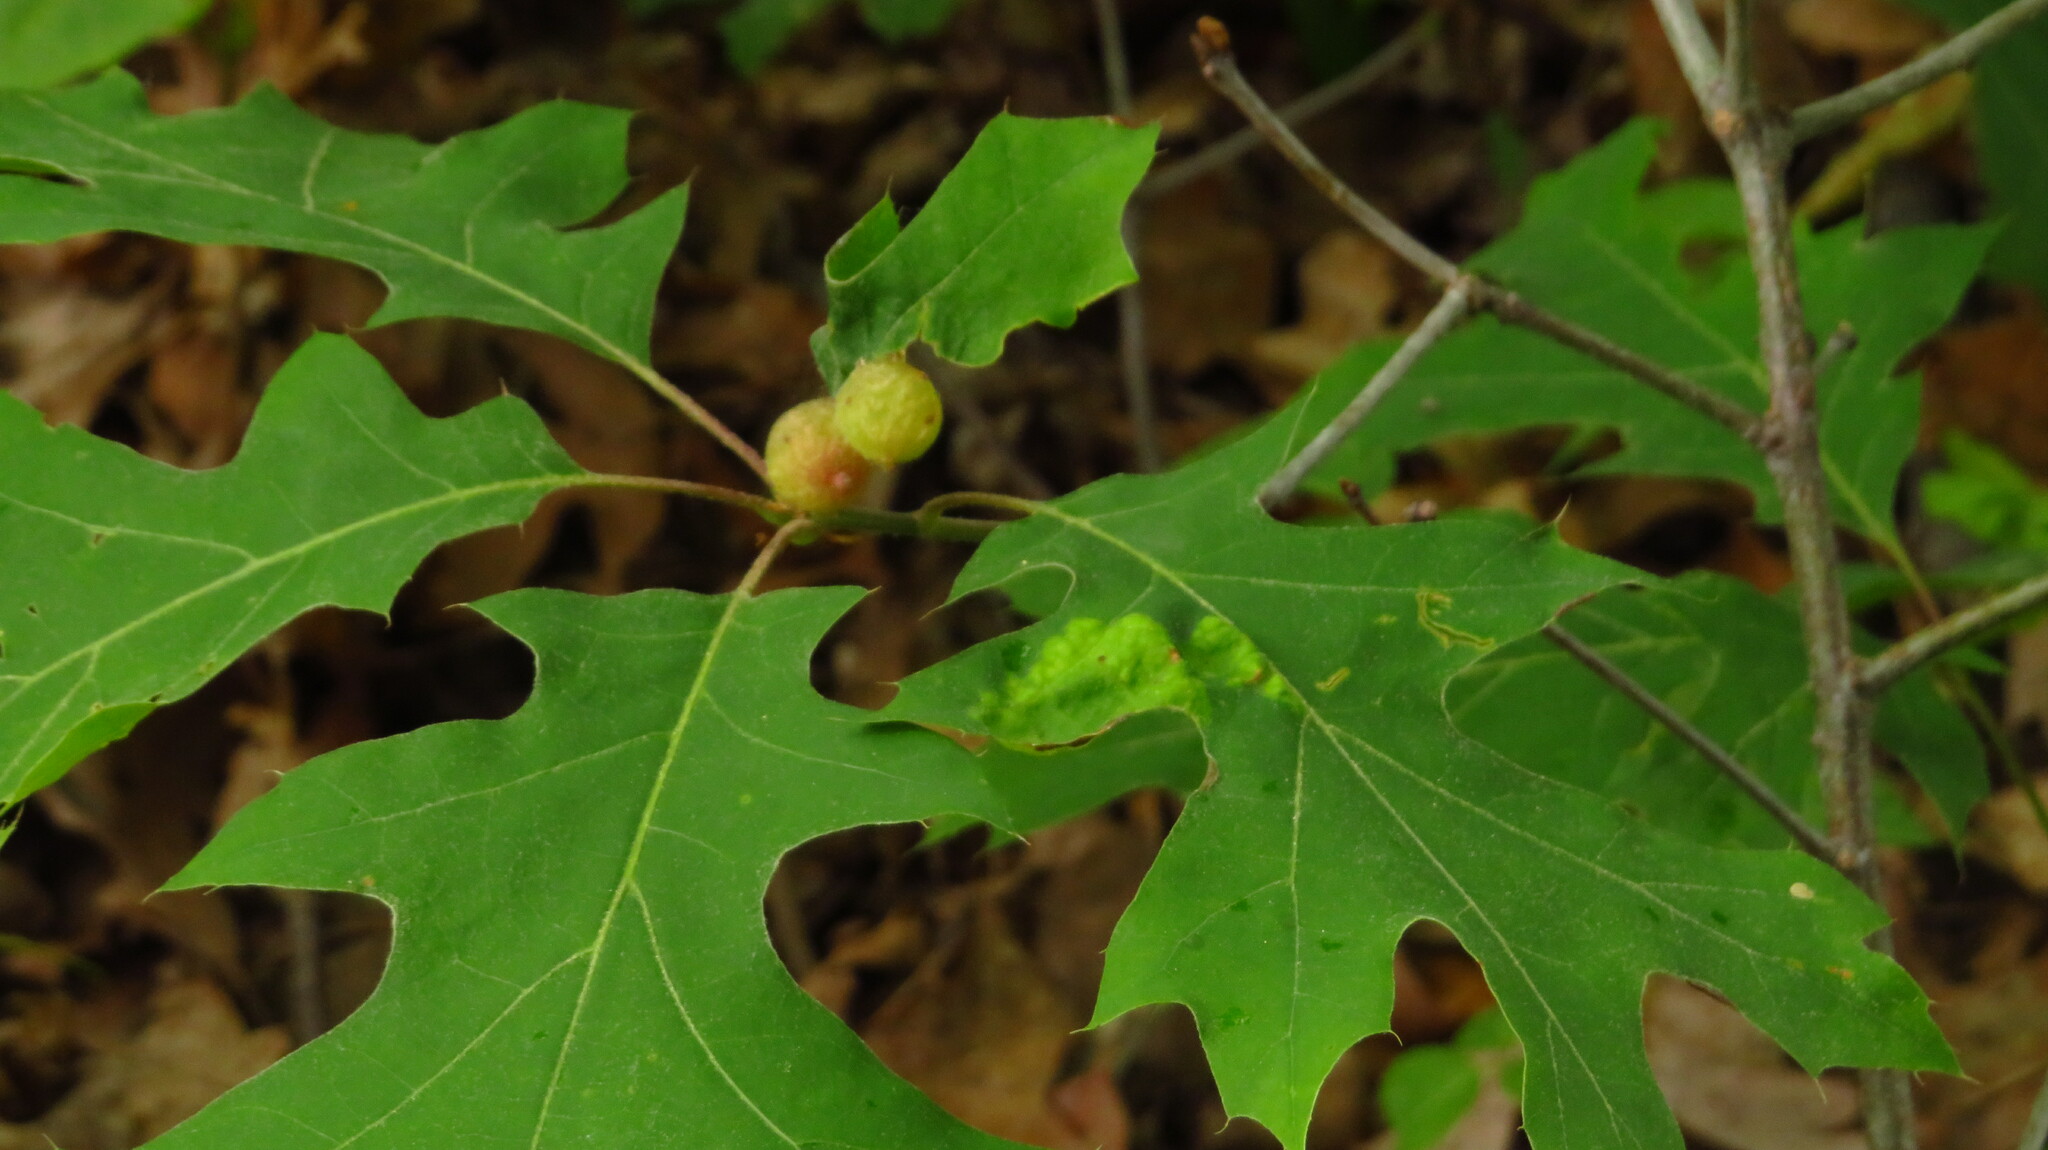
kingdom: Animalia
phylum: Arthropoda
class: Insecta
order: Hymenoptera
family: Cynipidae
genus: Dryocosmus
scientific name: Dryocosmus quercuspalustris
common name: Succulent oak gall wasp
